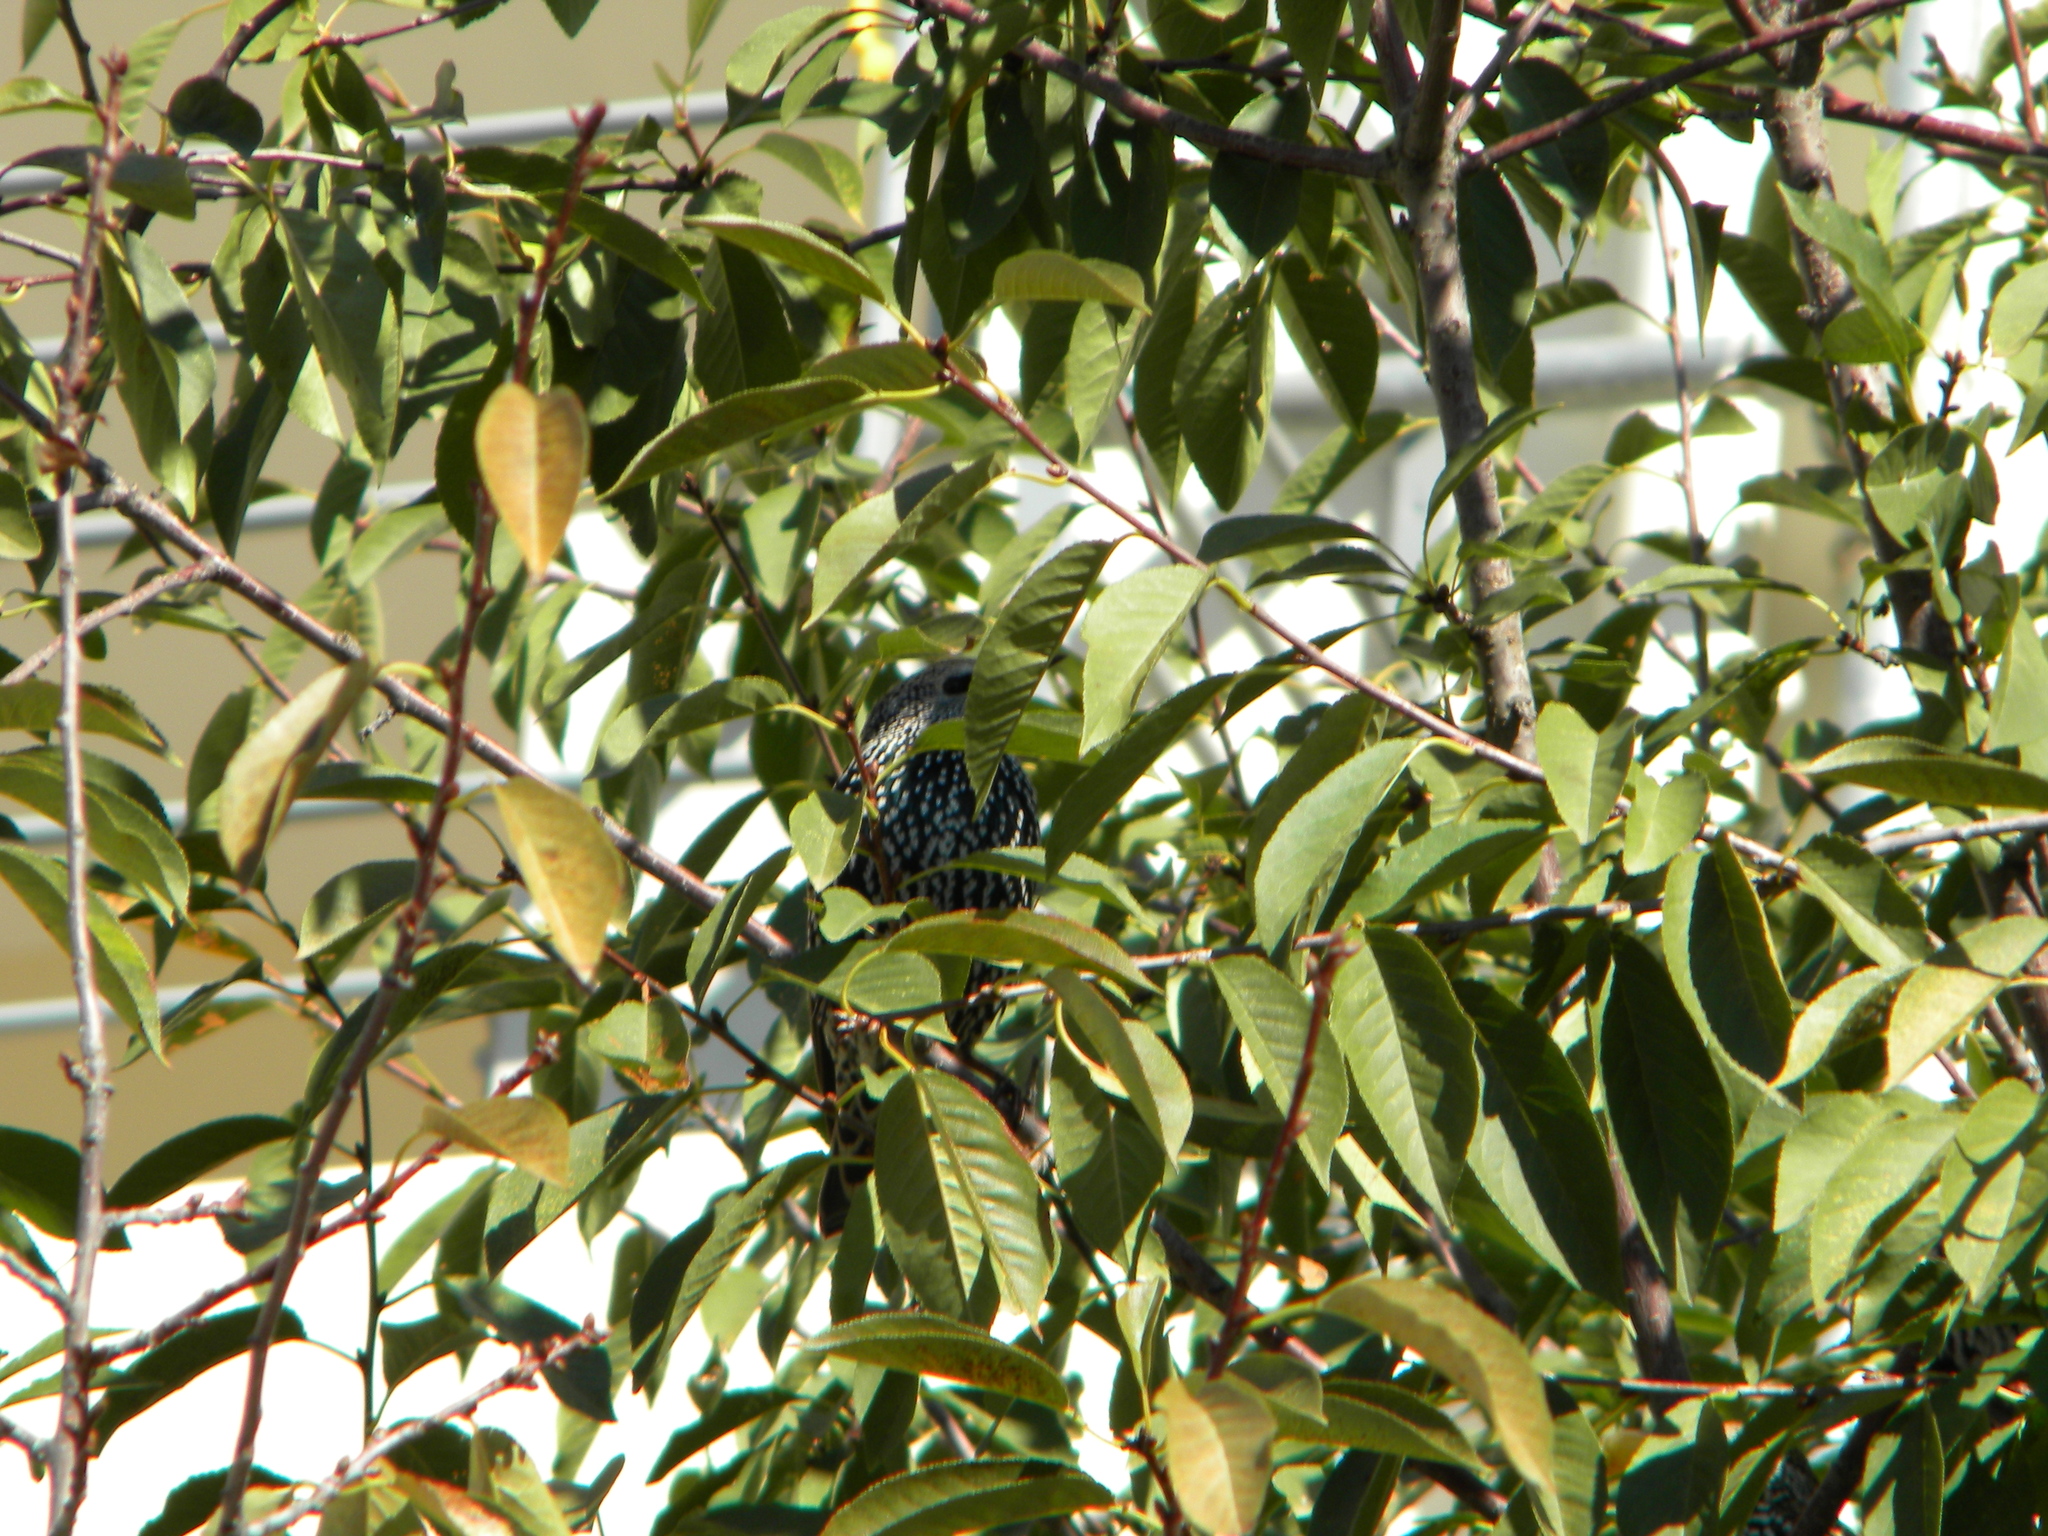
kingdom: Animalia
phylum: Chordata
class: Aves
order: Passeriformes
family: Sturnidae
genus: Sturnus
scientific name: Sturnus vulgaris
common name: Common starling
